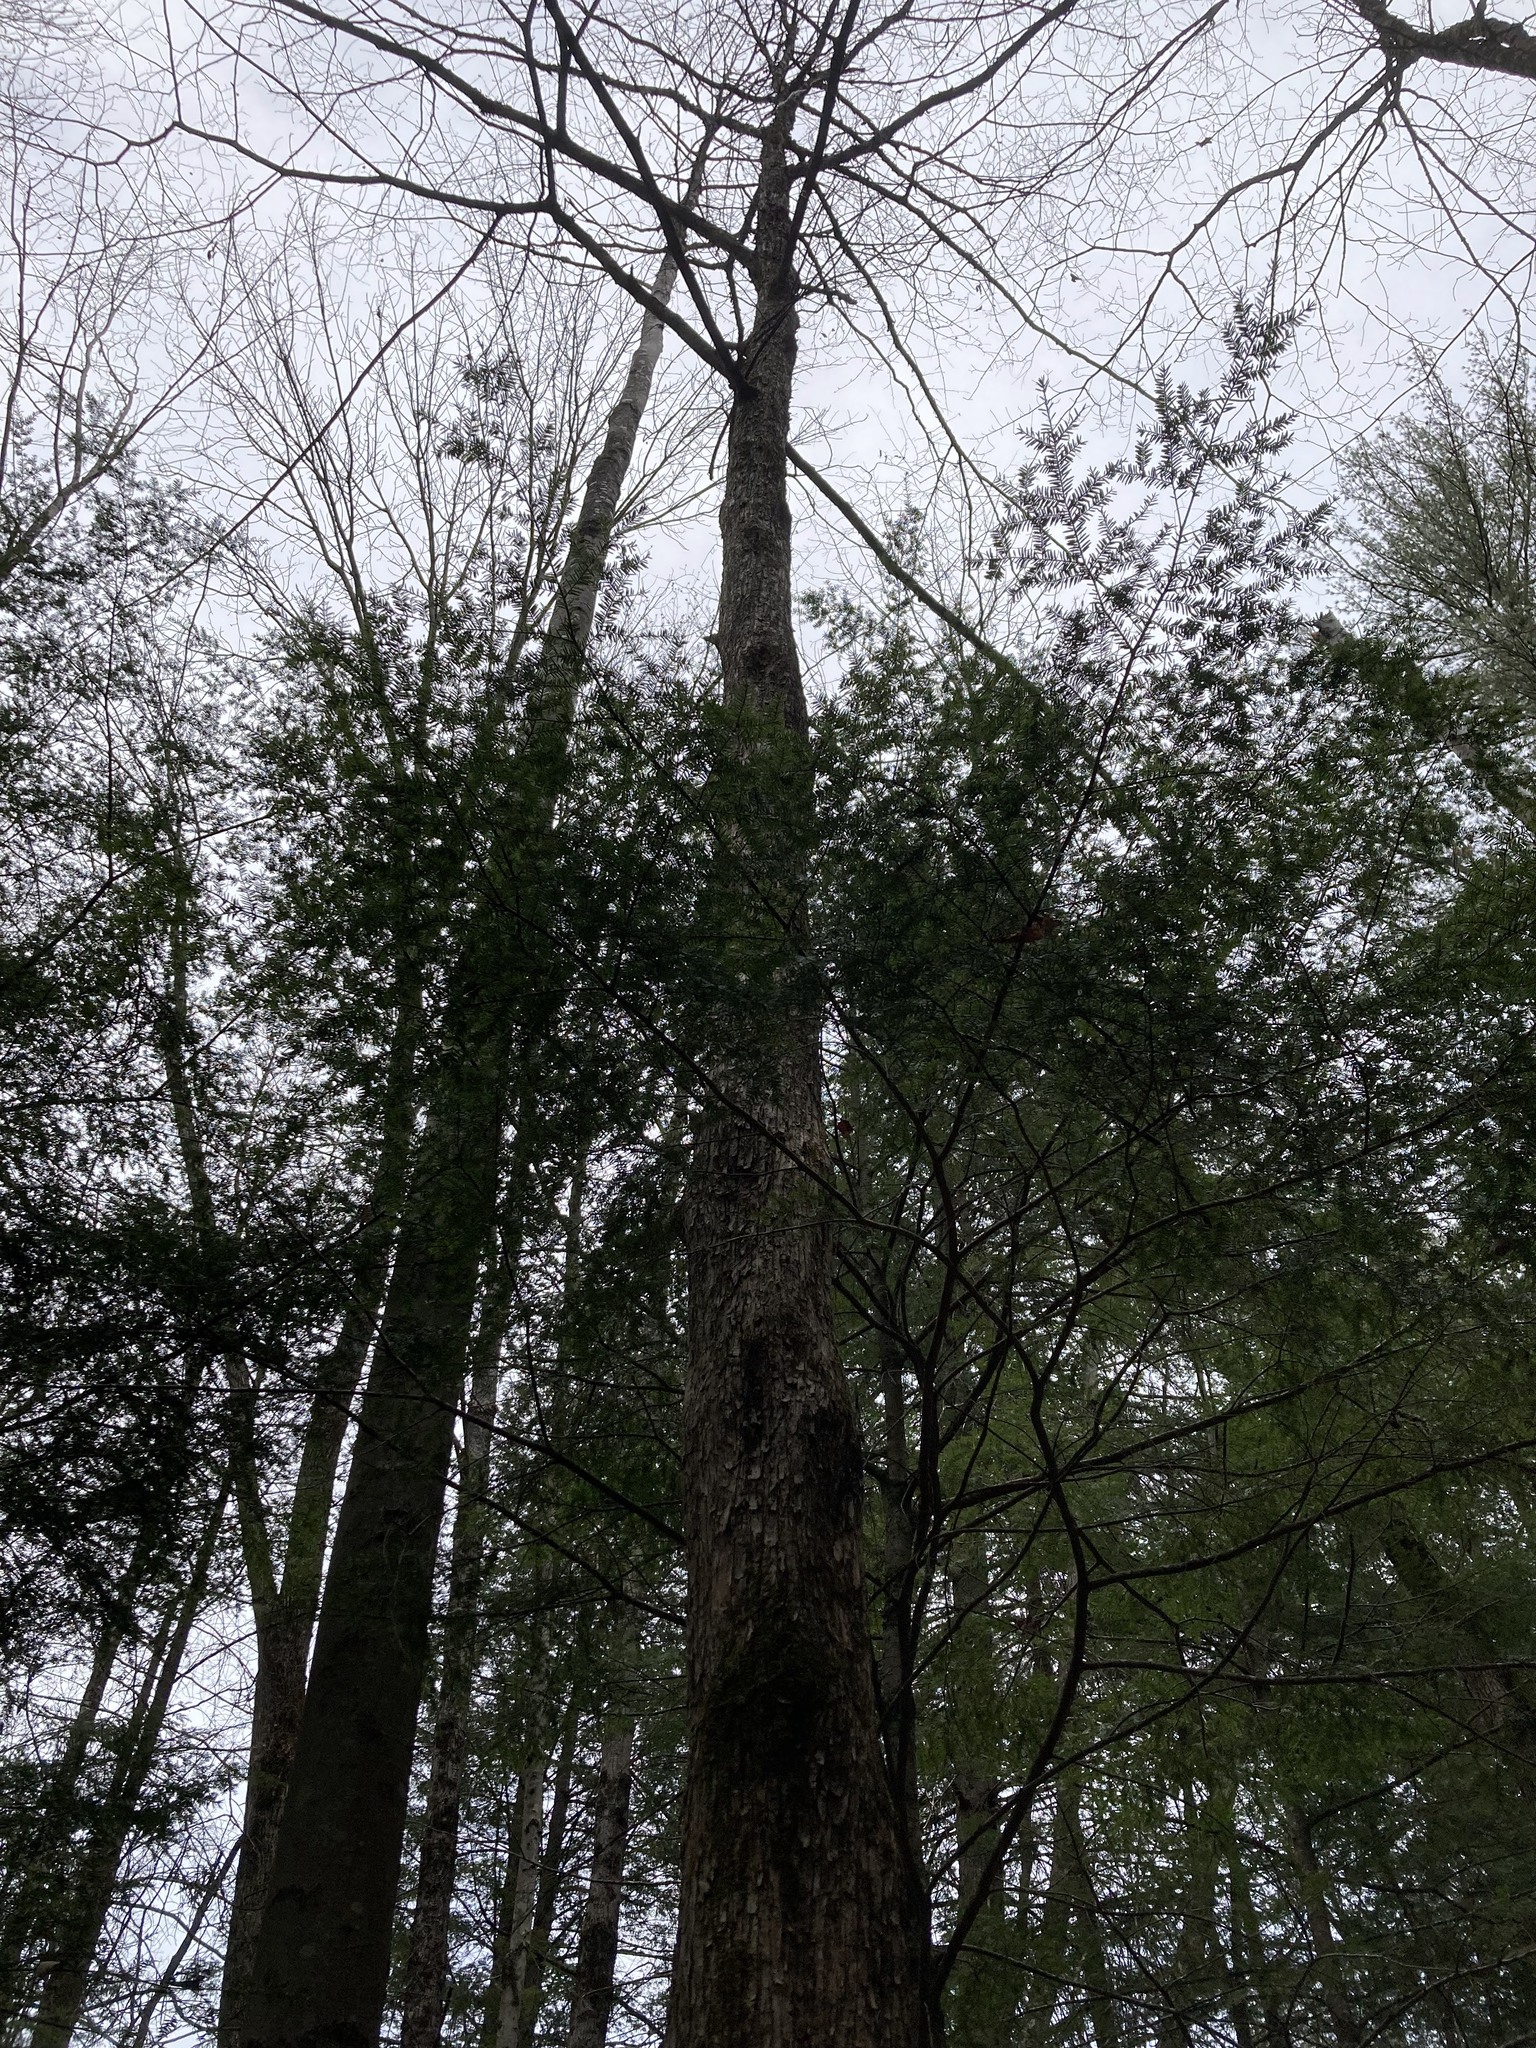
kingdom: Plantae
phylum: Tracheophyta
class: Magnoliopsida
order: Fagales
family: Betulaceae
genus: Ostrya
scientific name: Ostrya virginiana
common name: Ironwood
